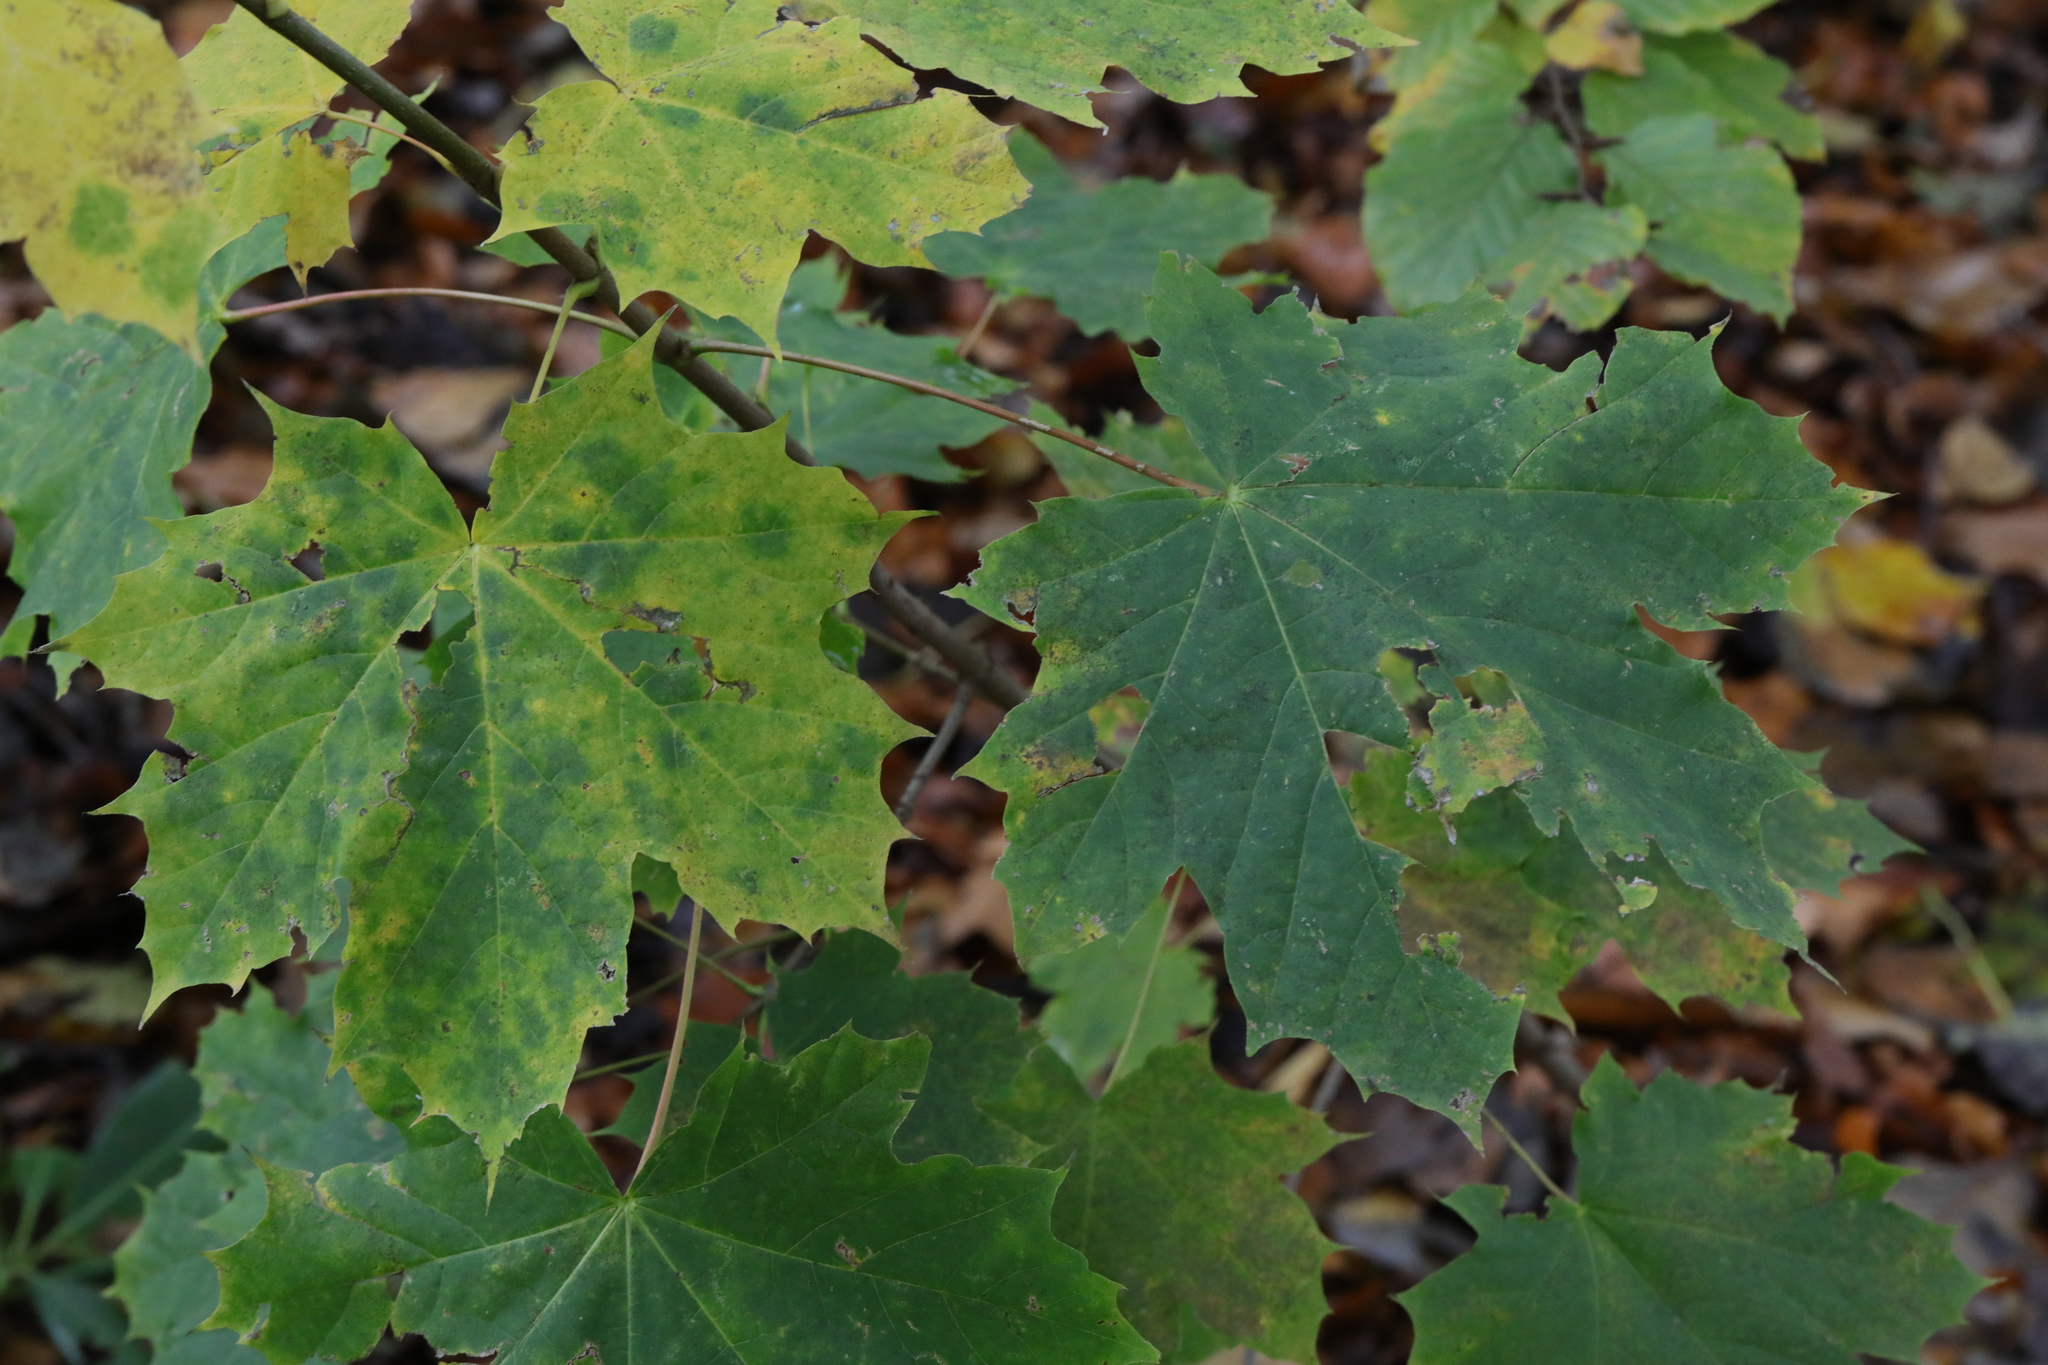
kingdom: Plantae
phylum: Tracheophyta
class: Magnoliopsida
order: Sapindales
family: Sapindaceae
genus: Acer
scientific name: Acer platanoides
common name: Norway maple
